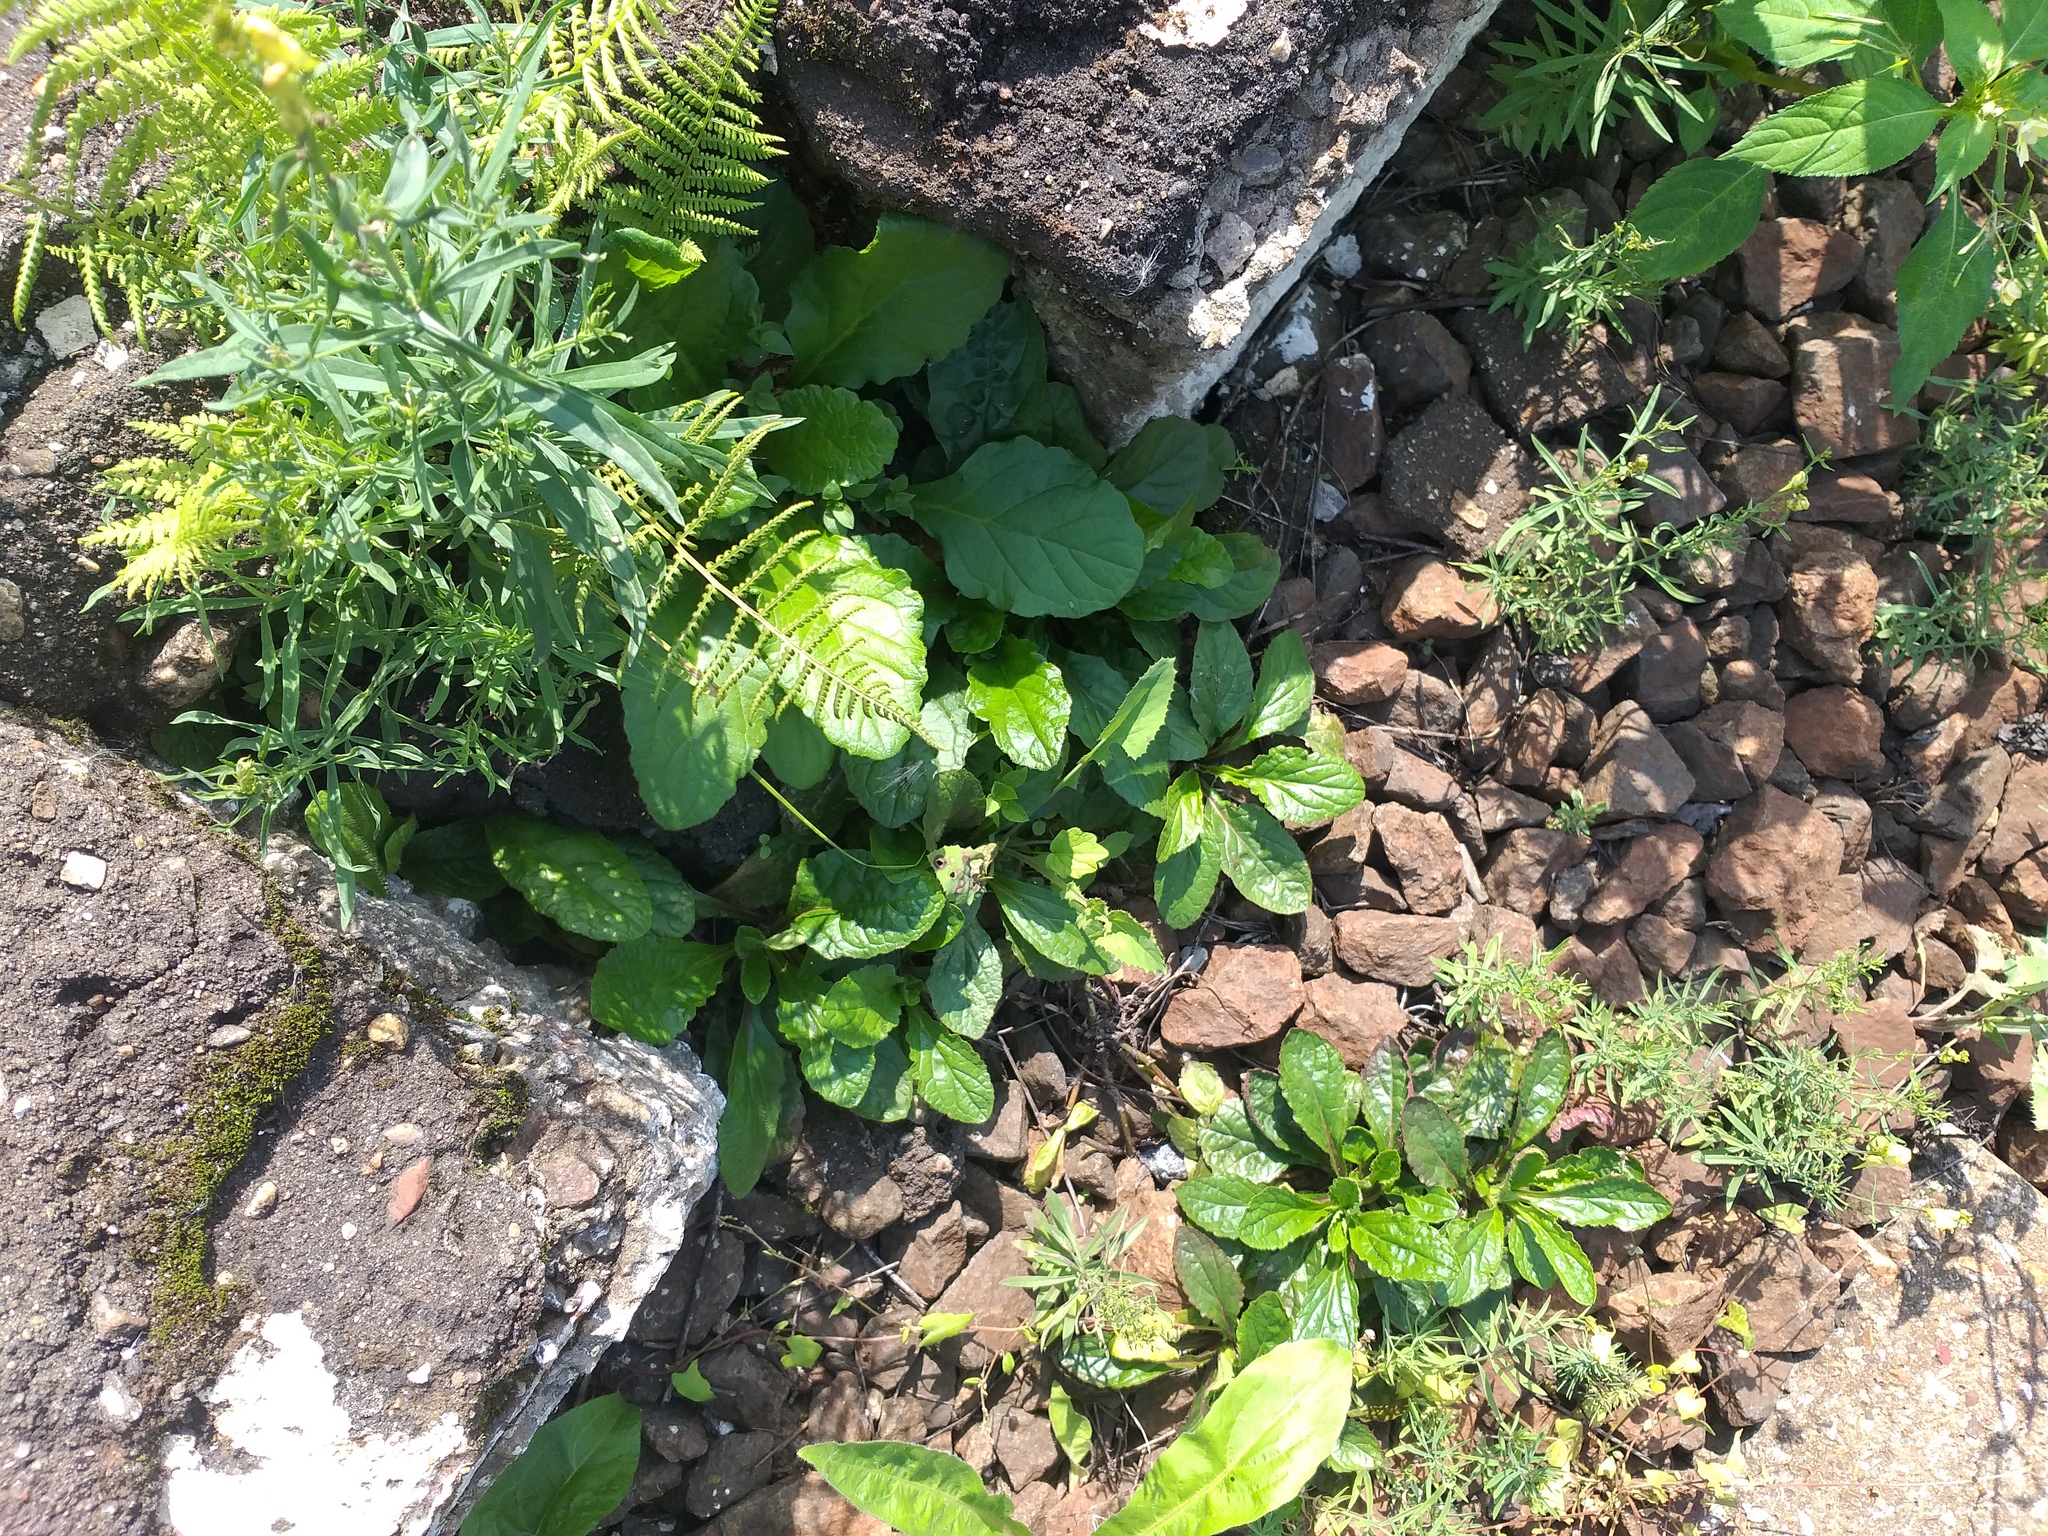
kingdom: Plantae
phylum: Tracheophyta
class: Magnoliopsida
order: Lamiales
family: Lamiaceae
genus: Ajuga
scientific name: Ajuga reptans
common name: Bugle
